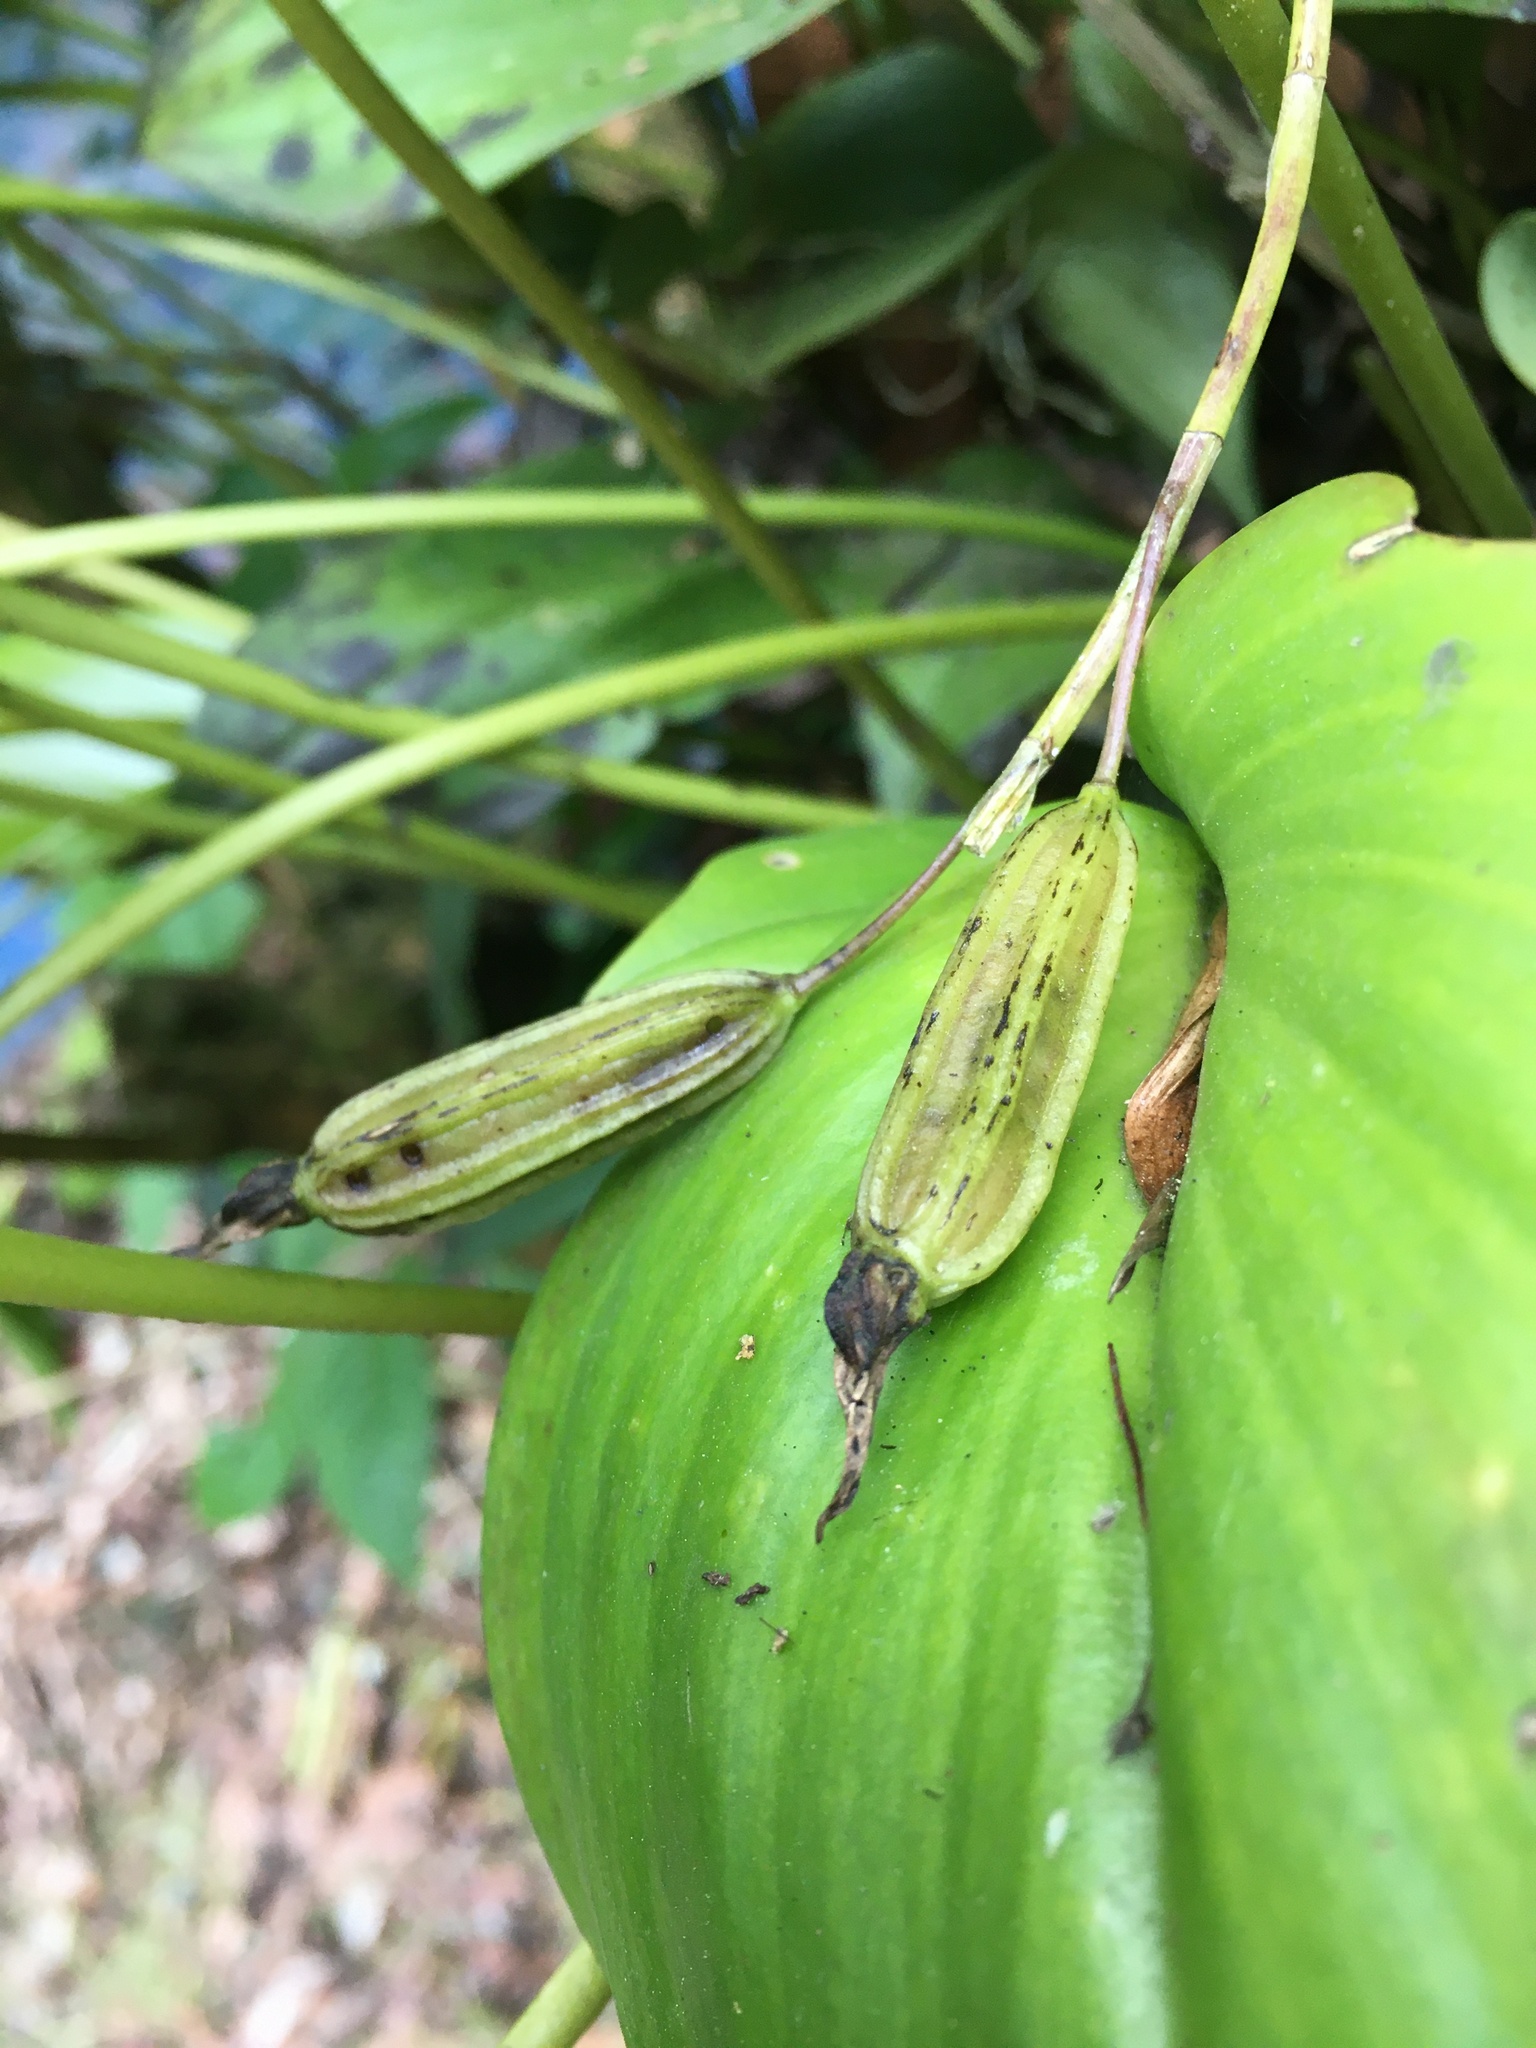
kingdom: Plantae
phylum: Tracheophyta
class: Liliopsida
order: Asparagales
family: Orchidaceae
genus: Pleurothallis
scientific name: Pleurothallis phalangifera
